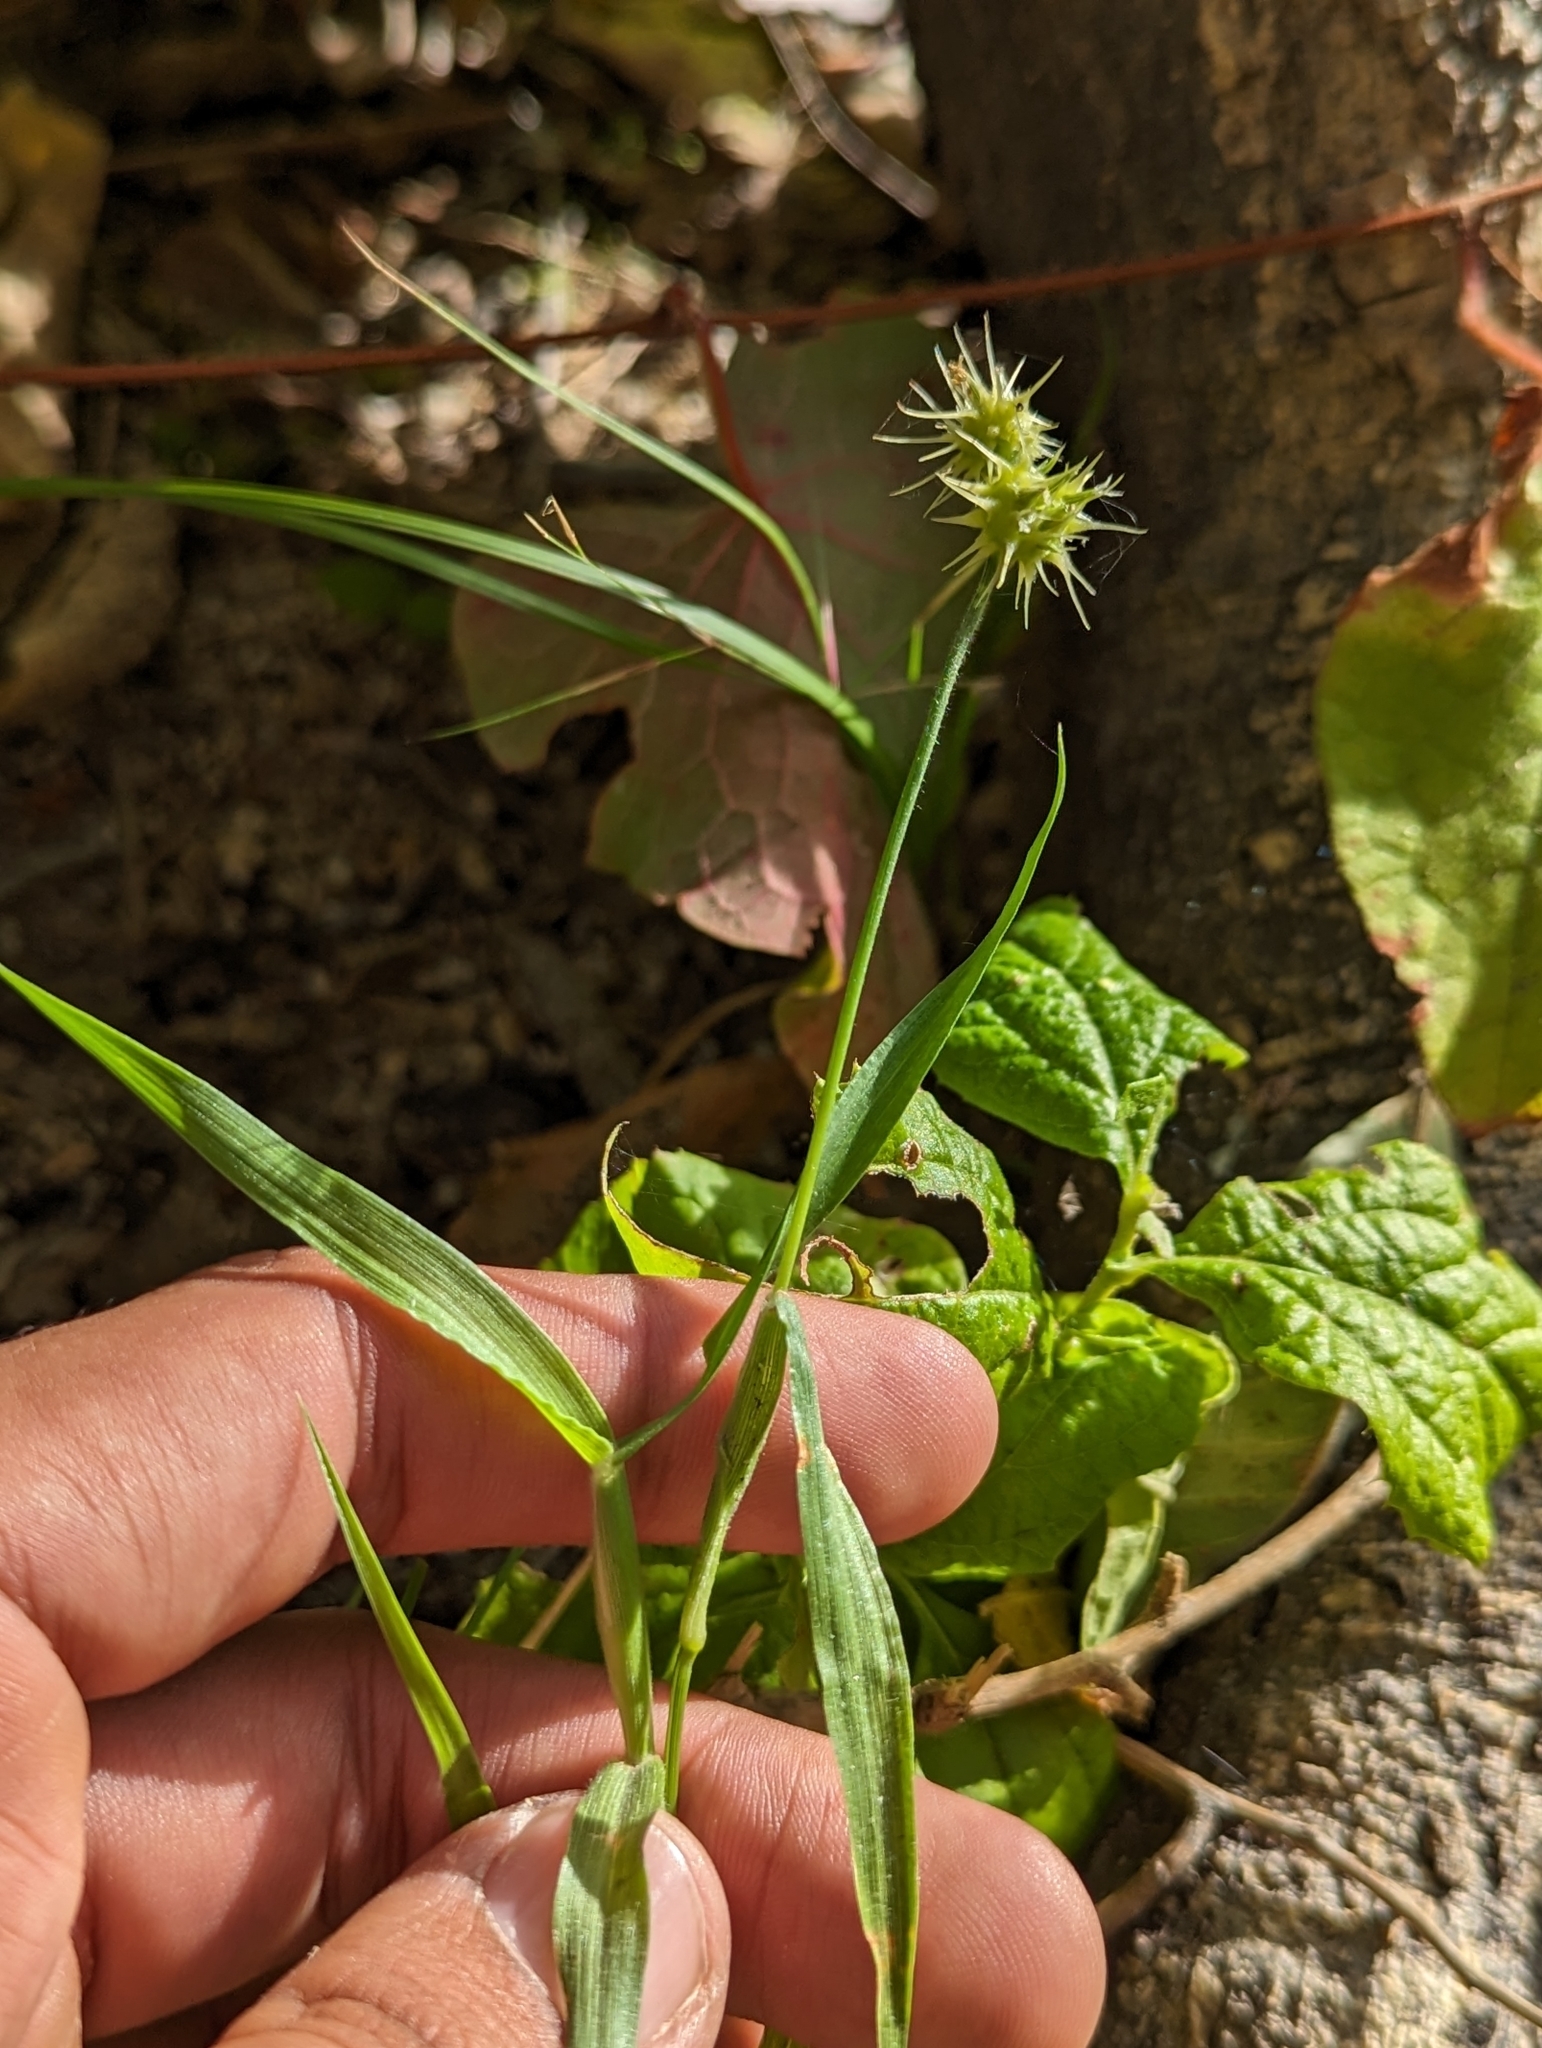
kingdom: Plantae
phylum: Tracheophyta
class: Liliopsida
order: Poales
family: Poaceae
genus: Cenchrus
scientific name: Cenchrus palmeri
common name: Giant sandbur
